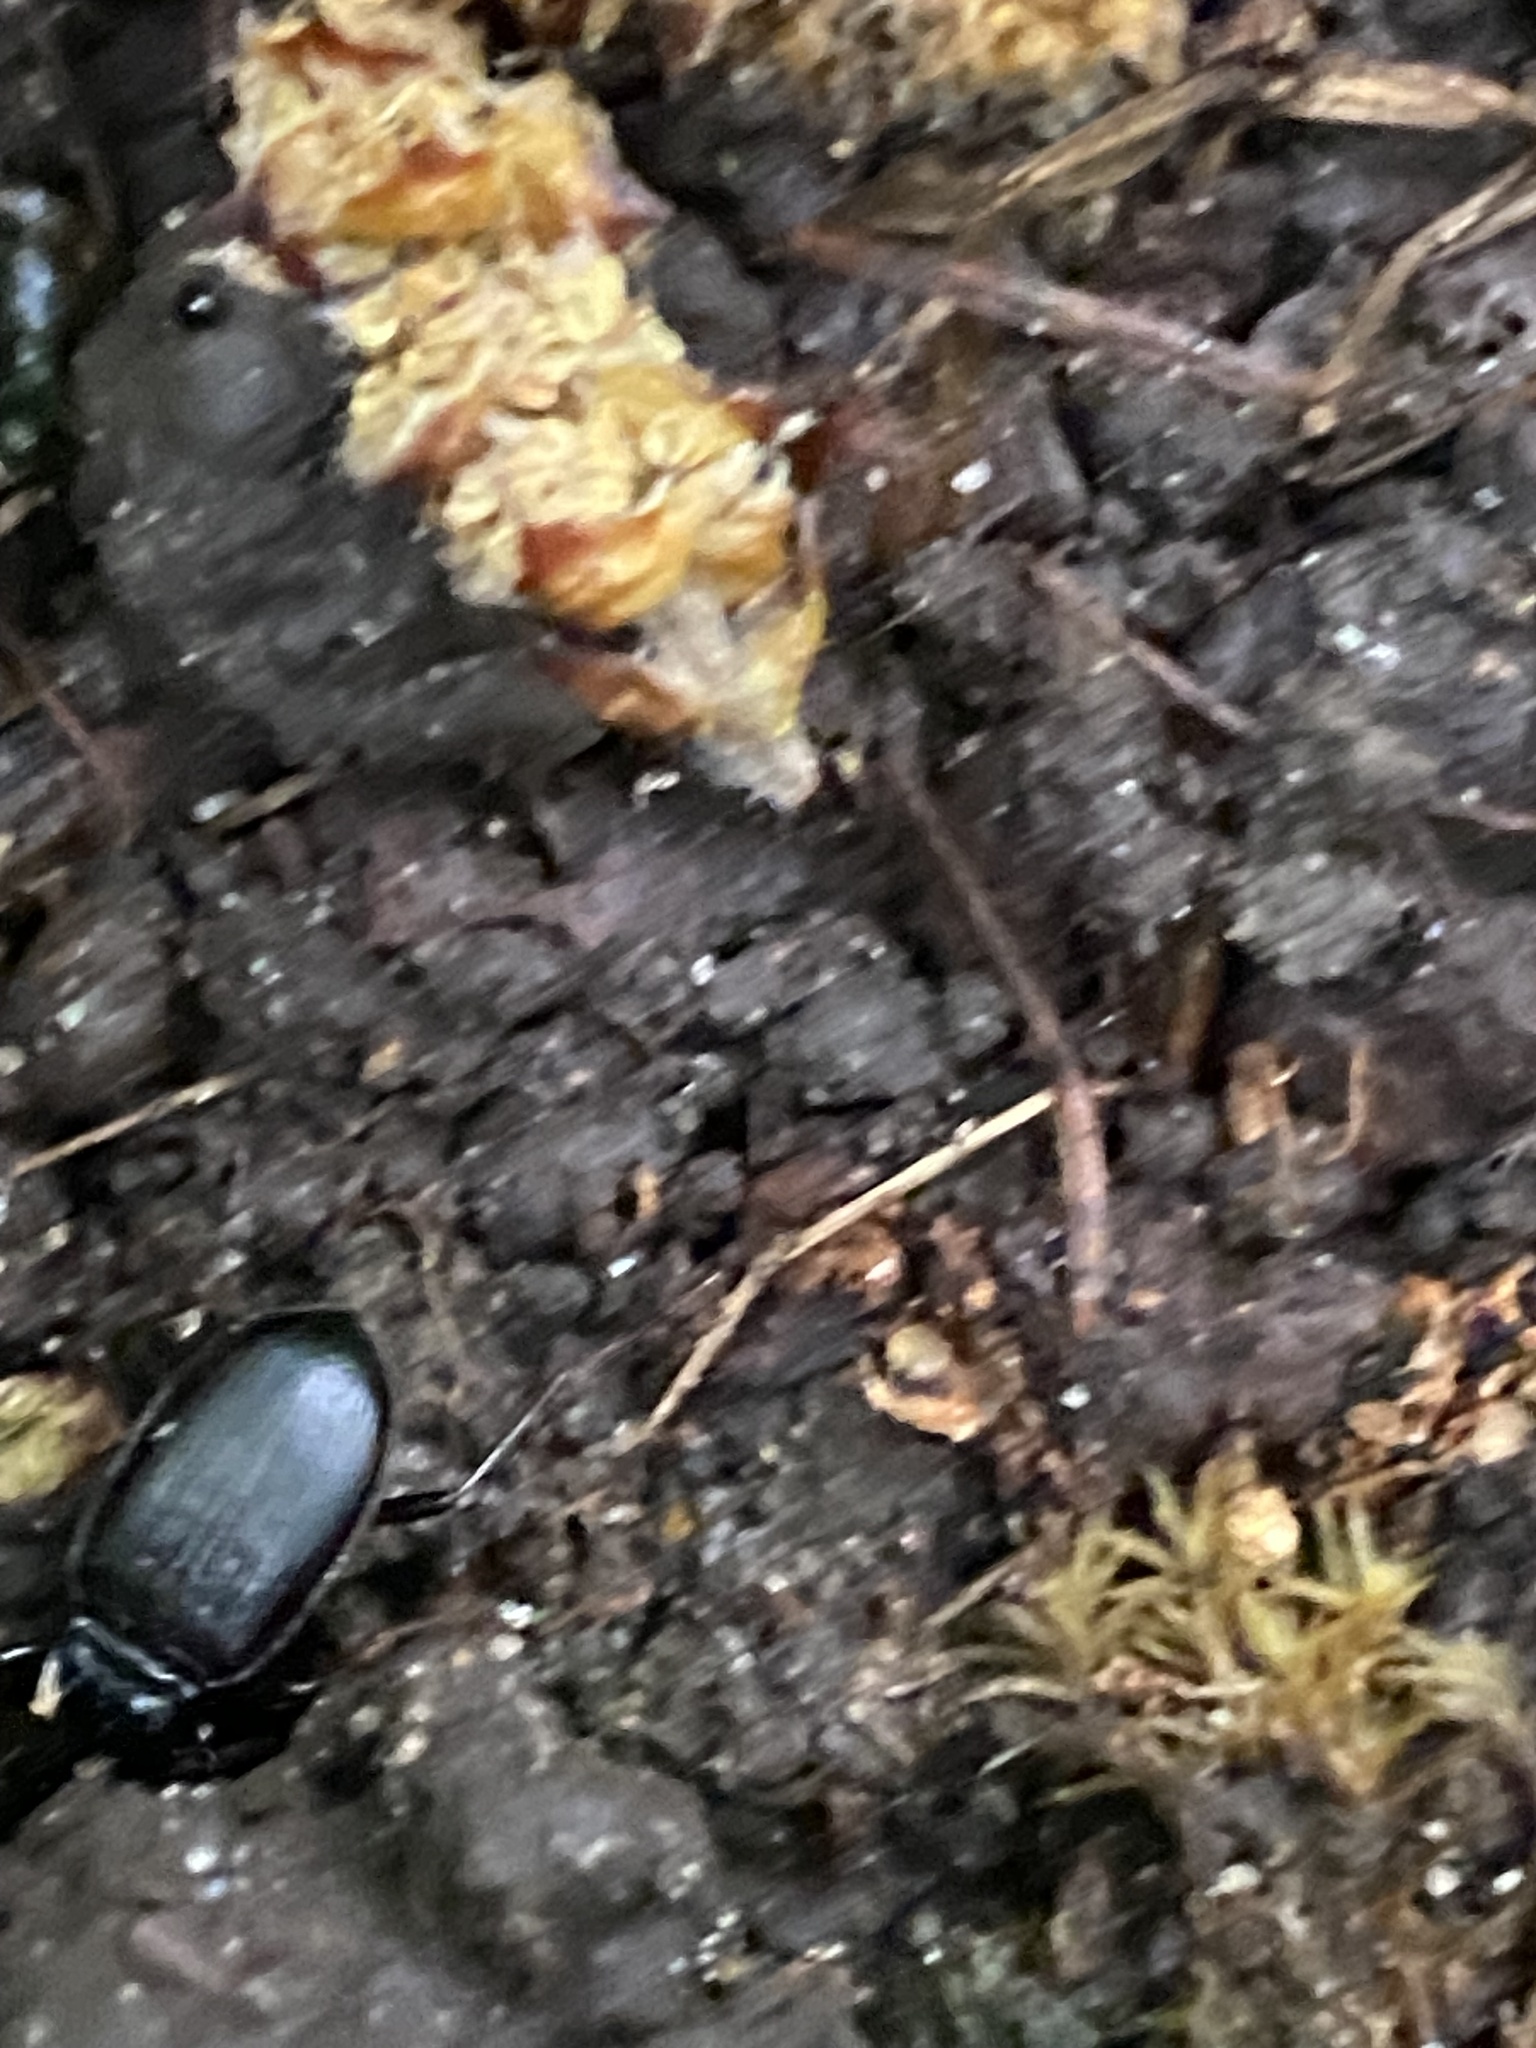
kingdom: Animalia
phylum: Arthropoda
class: Insecta
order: Coleoptera
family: Carabidae
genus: Nebria
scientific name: Nebria brevicollis
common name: Short-necked gazelle beetle
